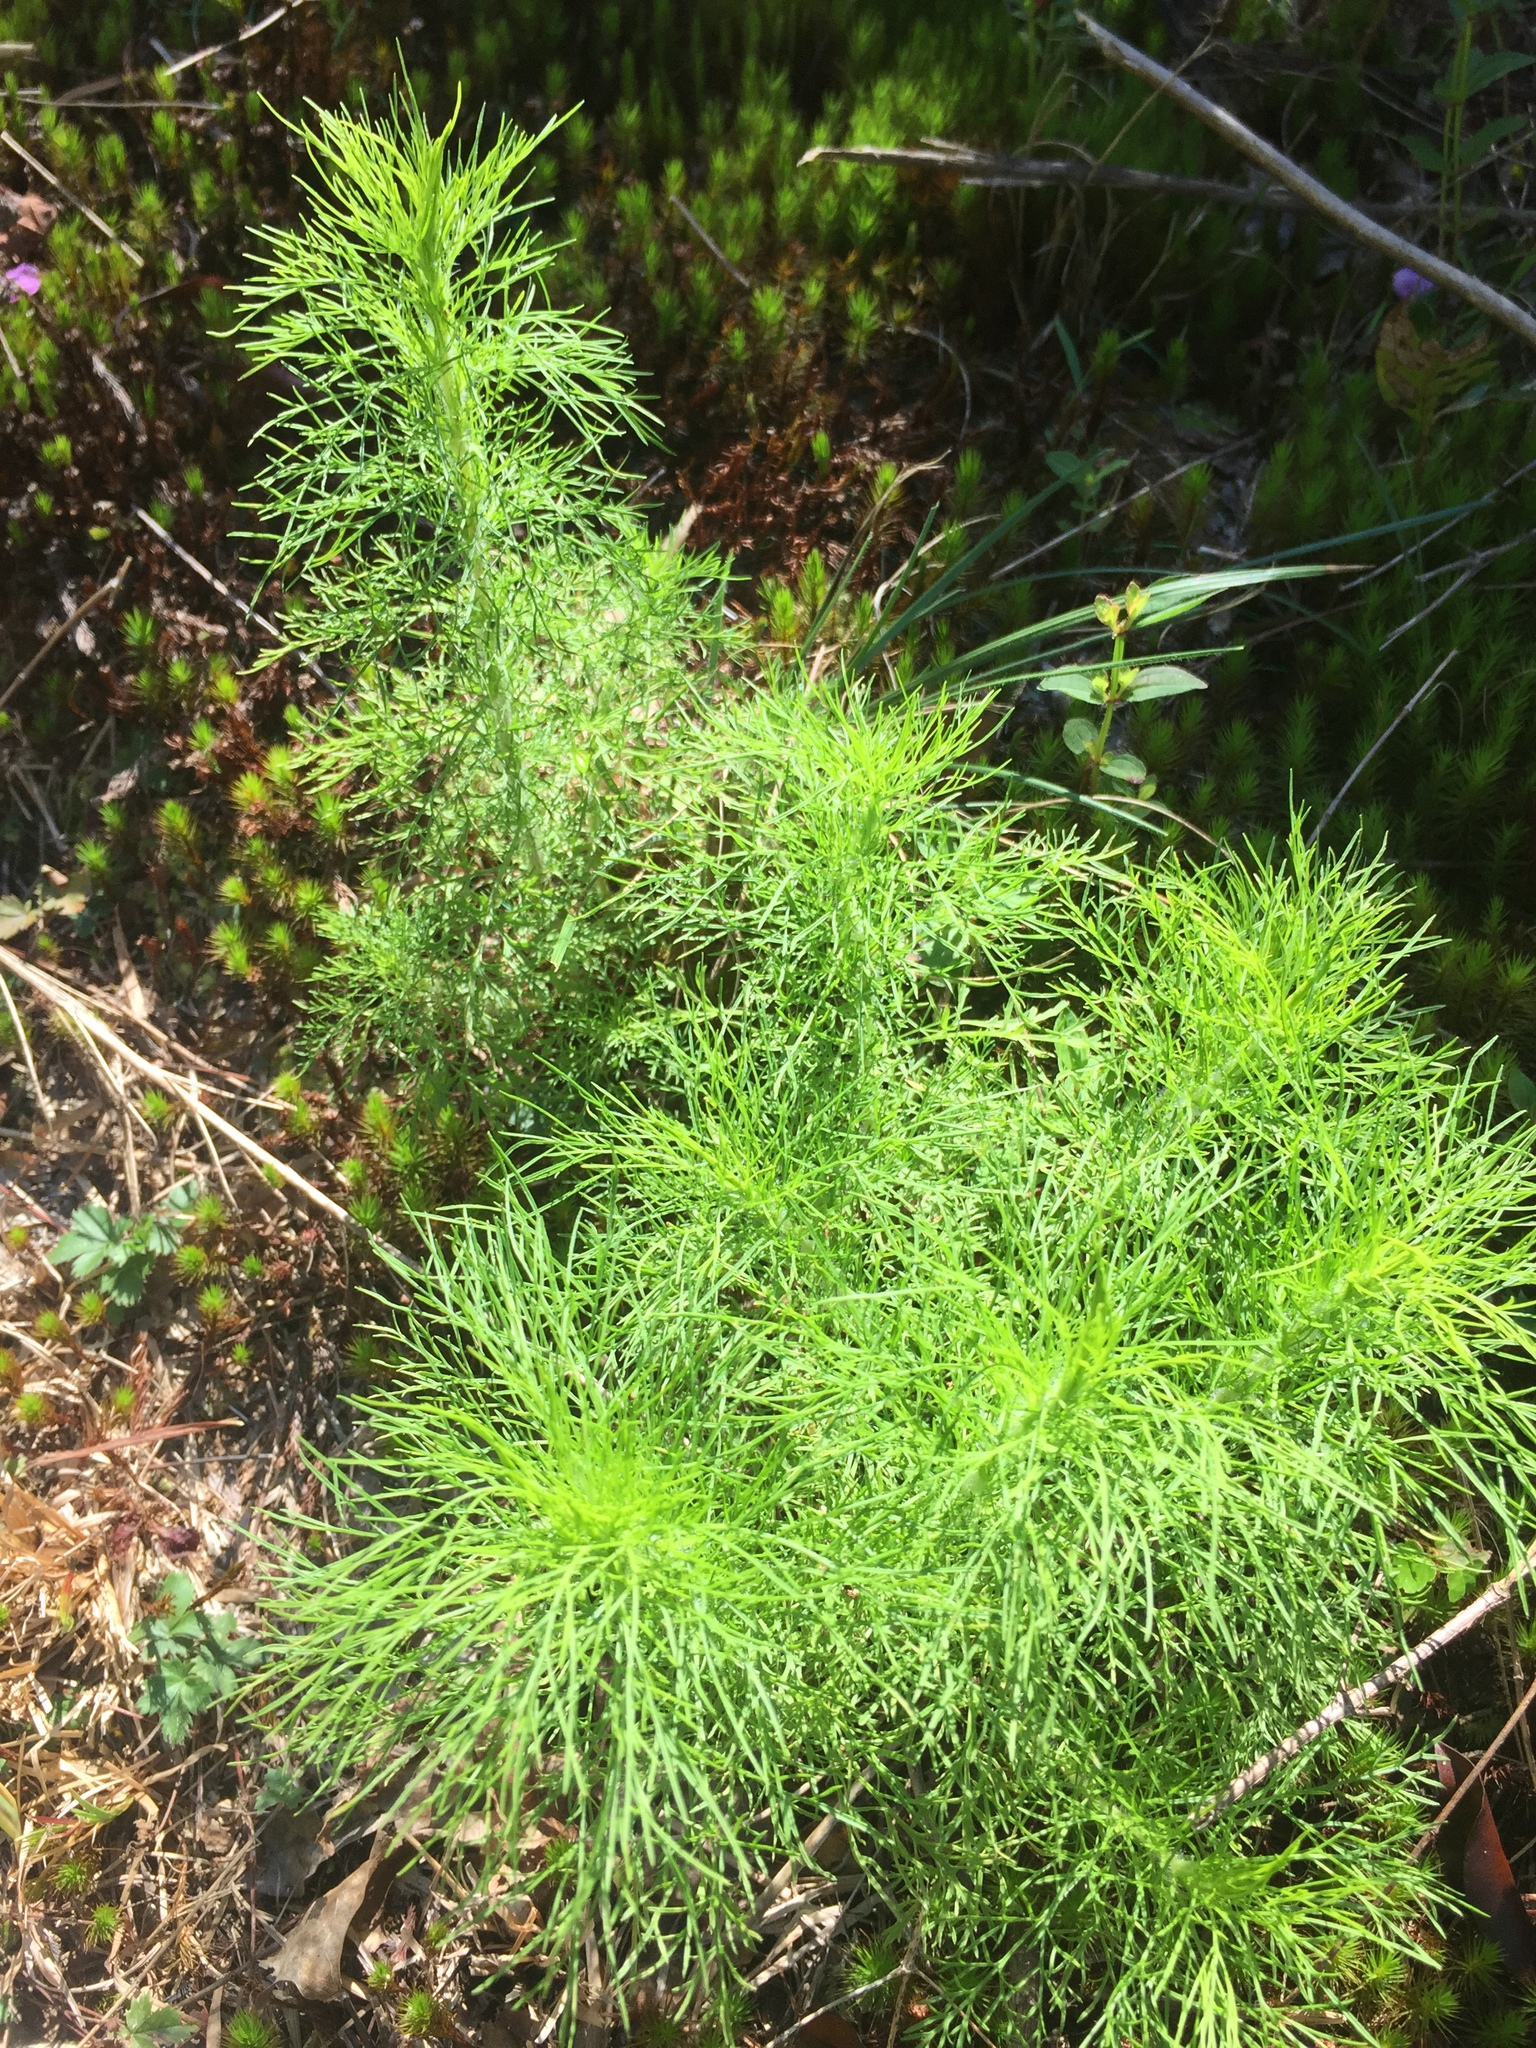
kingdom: Plantae
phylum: Tracheophyta
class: Magnoliopsida
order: Asterales
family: Asteraceae
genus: Eupatorium
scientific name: Eupatorium capillifolium
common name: Dog-fennel
